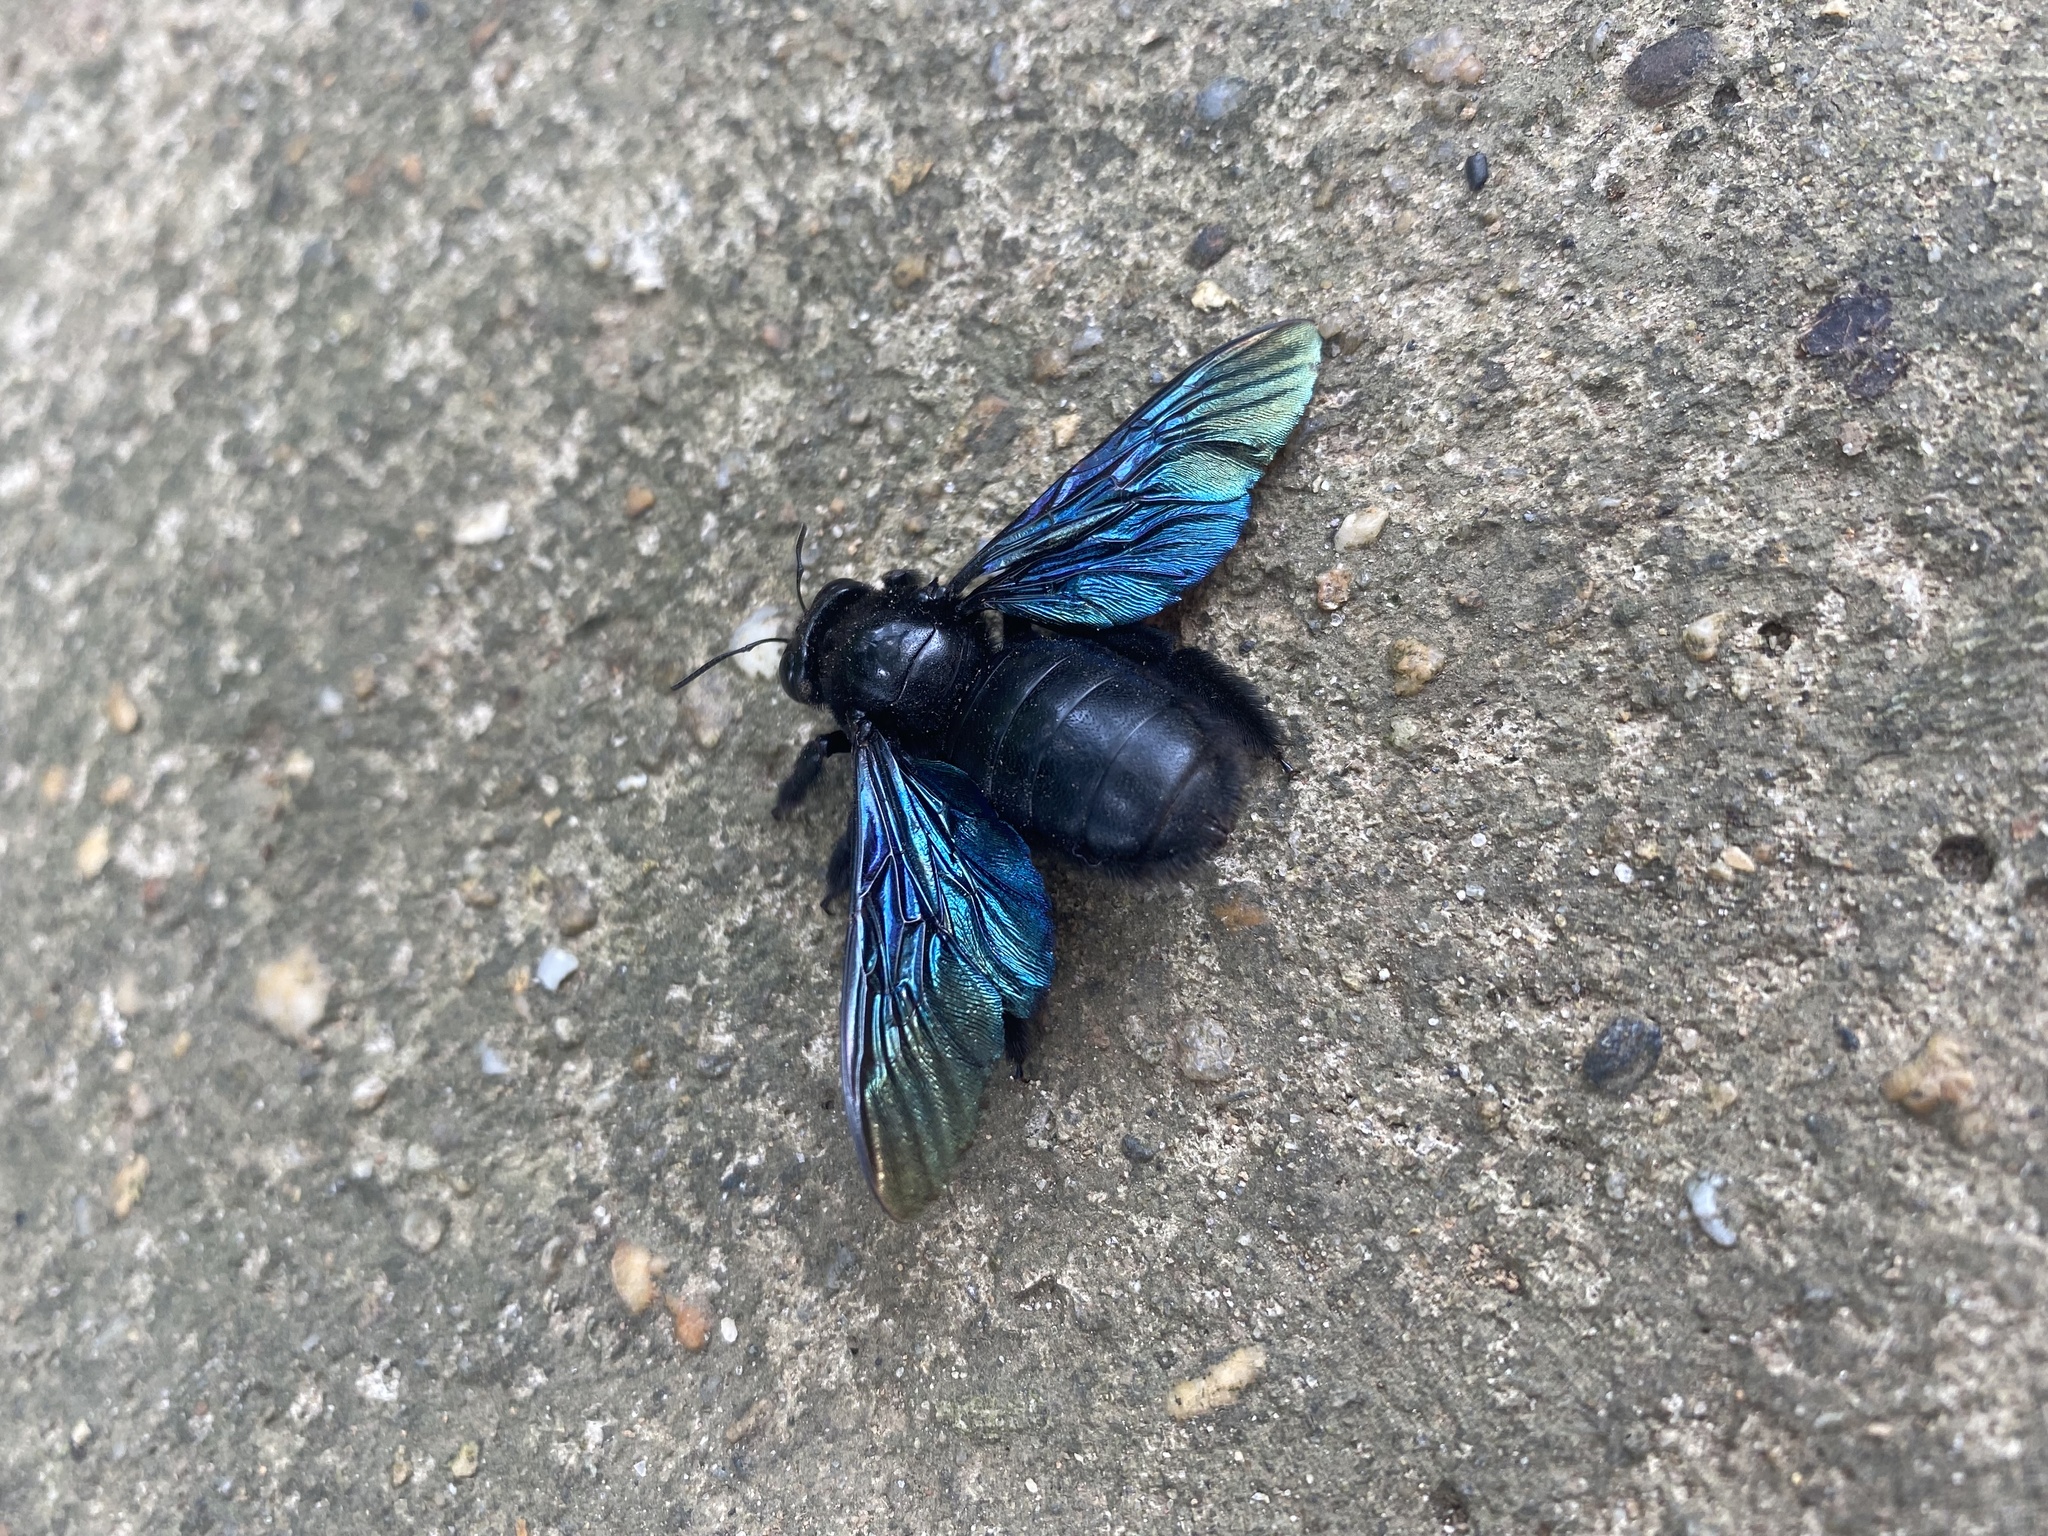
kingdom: Animalia
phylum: Arthropoda
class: Insecta
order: Hymenoptera
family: Apidae
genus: Xylocopa
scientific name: Xylocopa nasalis
